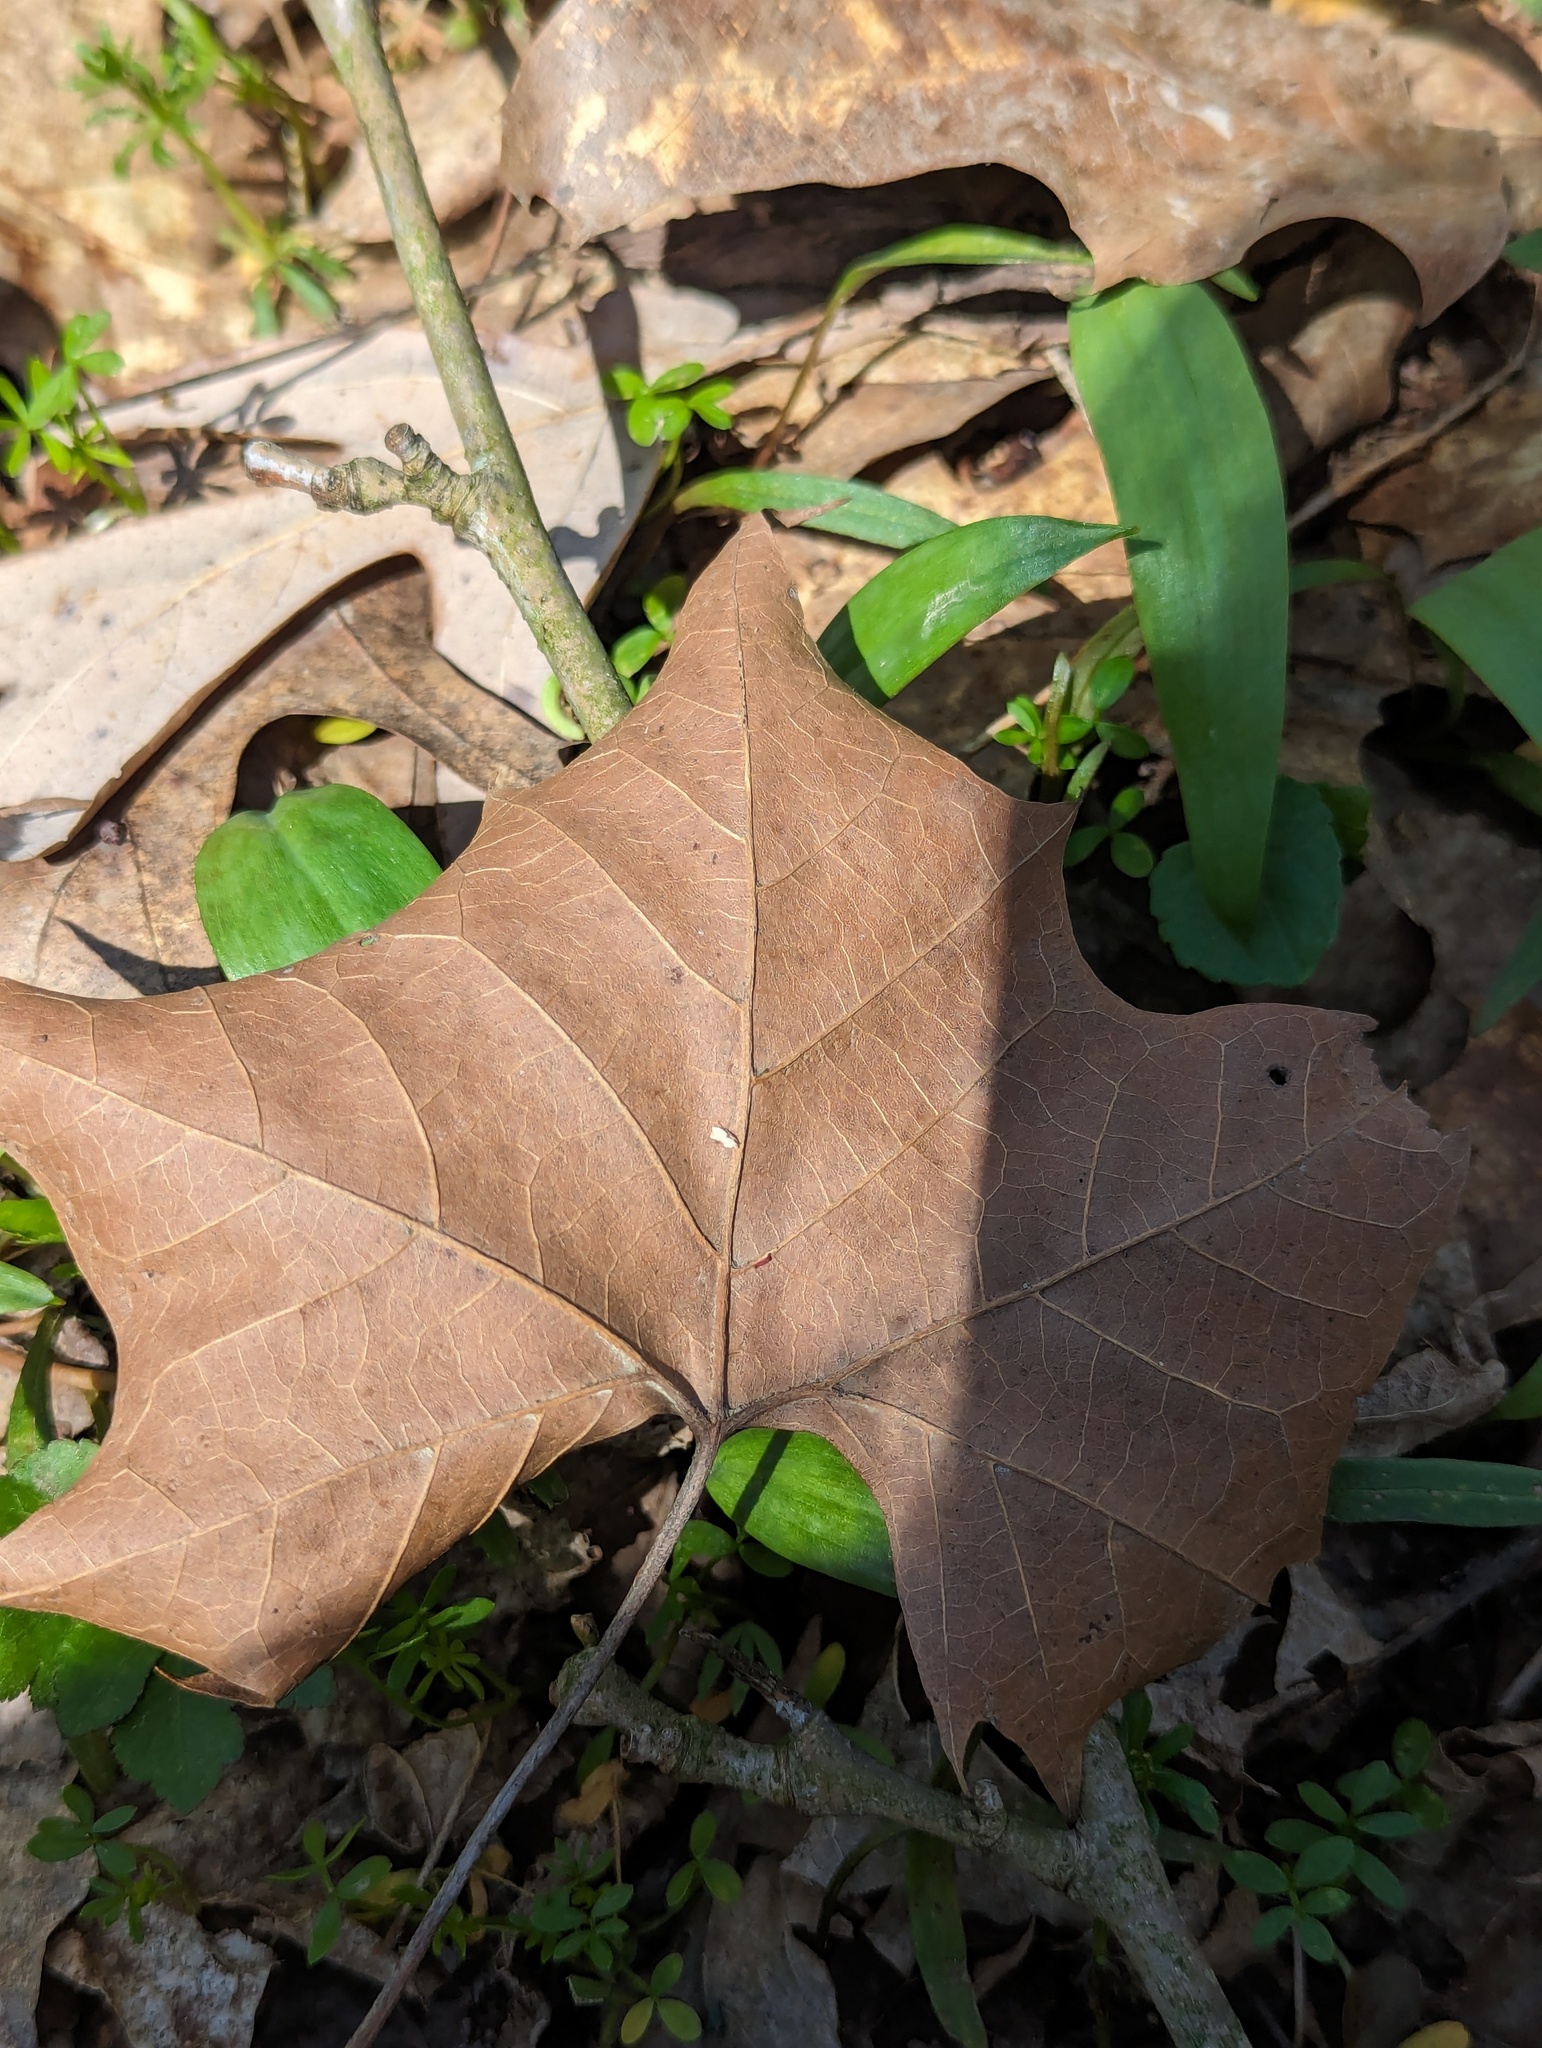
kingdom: Plantae
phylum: Tracheophyta
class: Magnoliopsida
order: Proteales
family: Platanaceae
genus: Platanus
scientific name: Platanus occidentalis
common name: American sycamore
